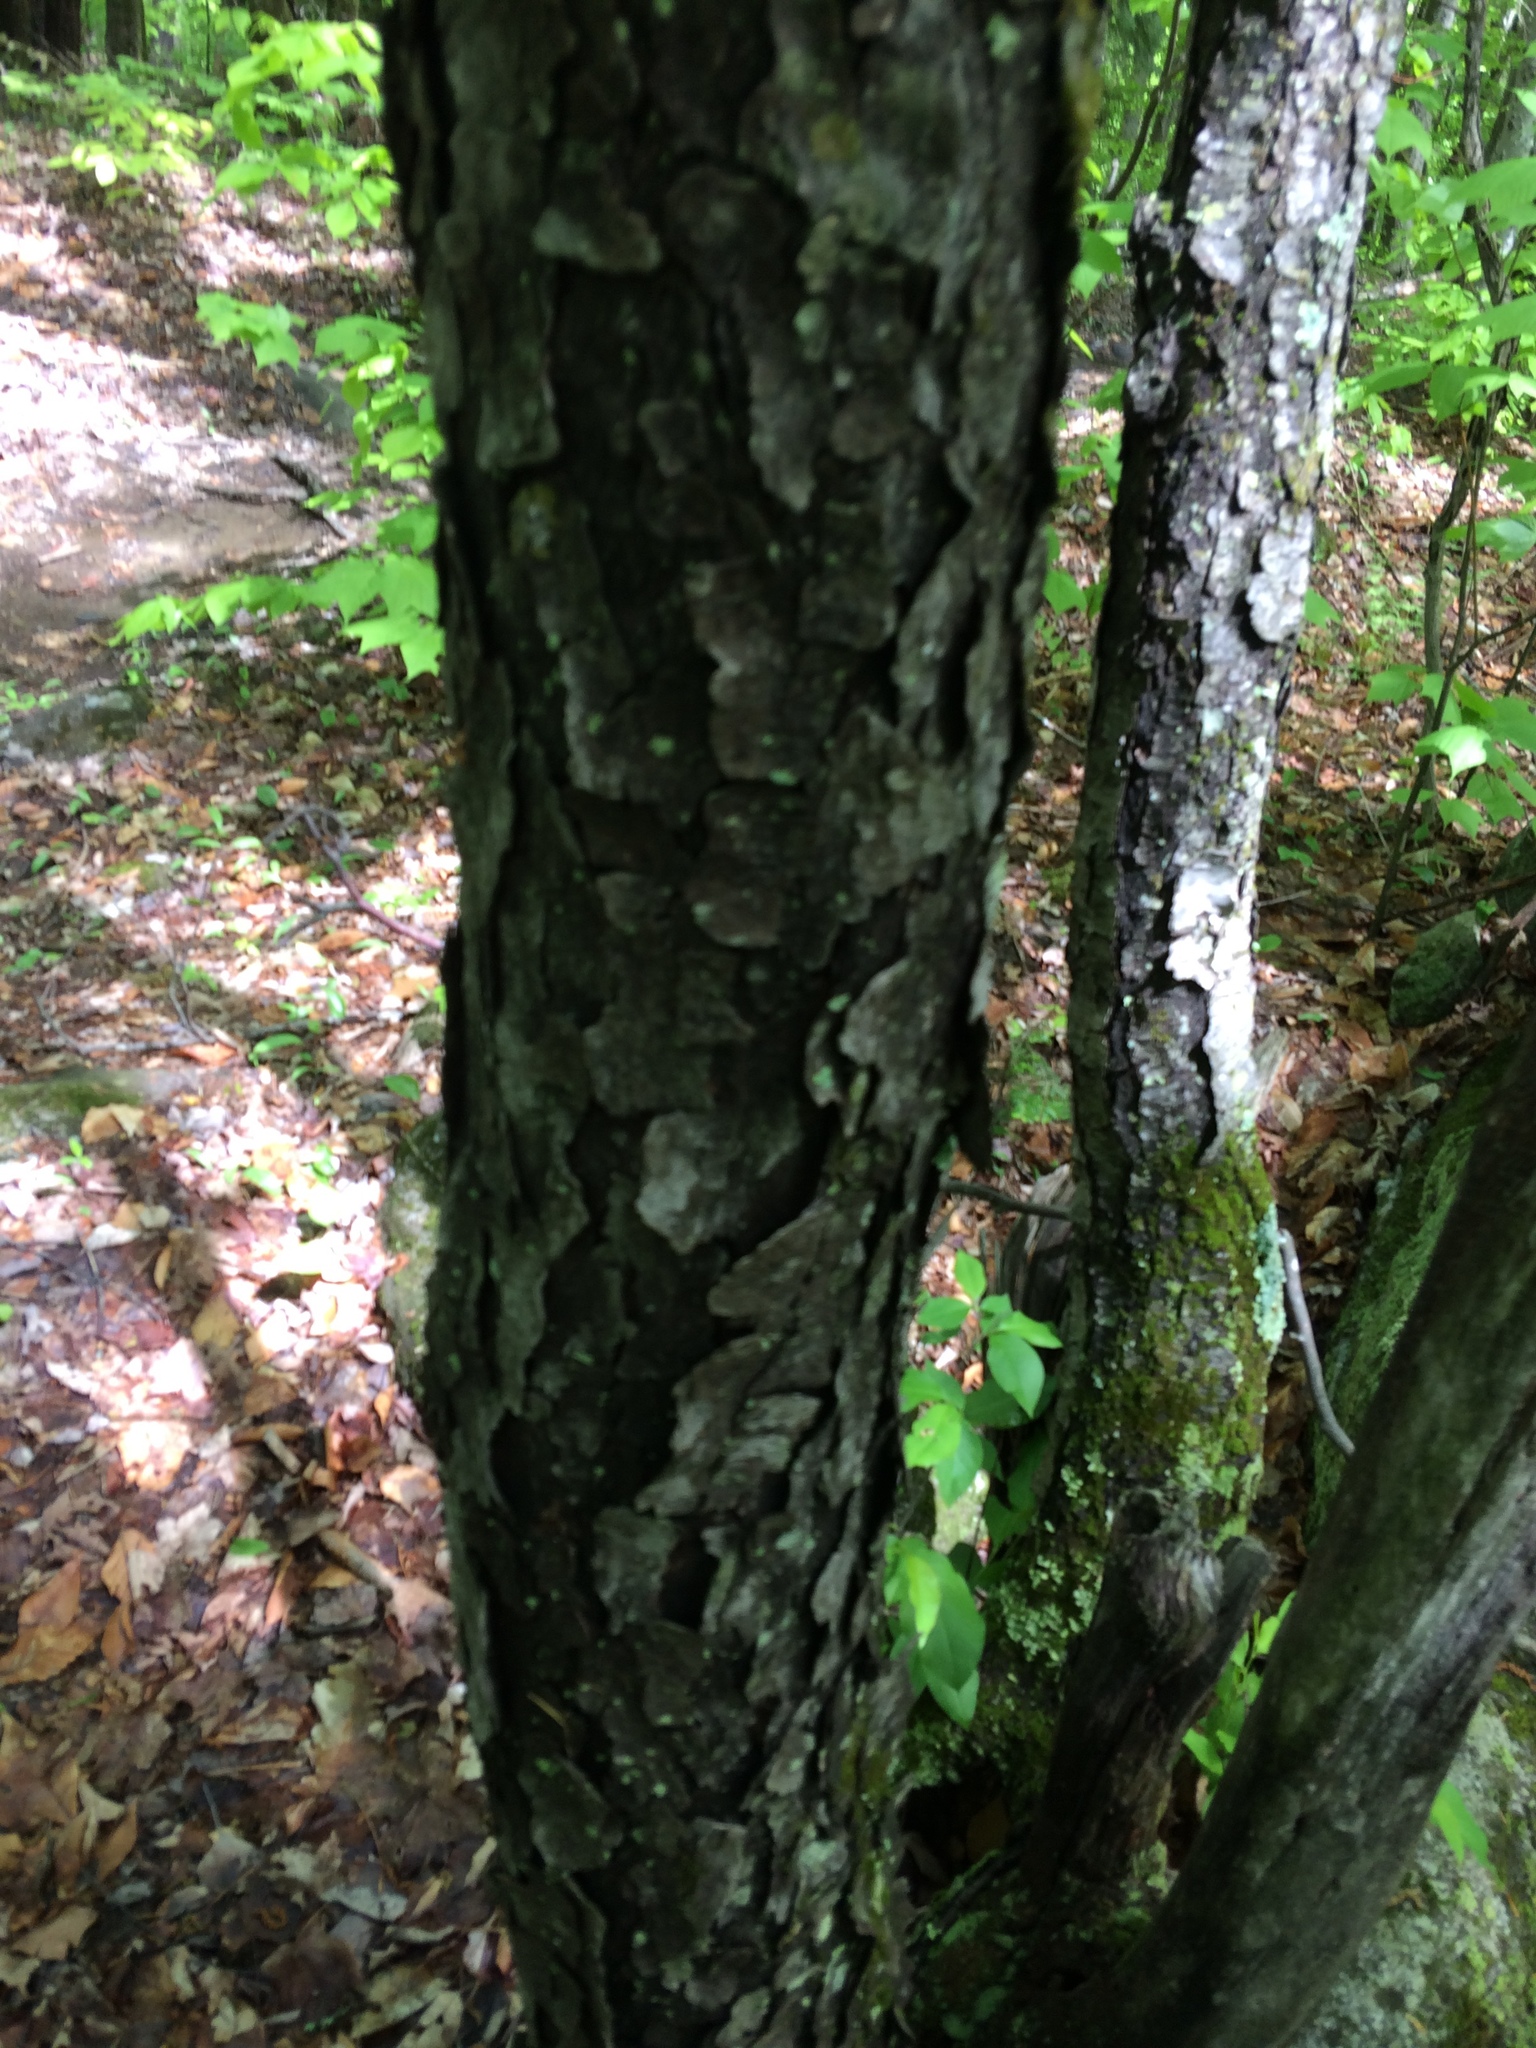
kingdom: Plantae
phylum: Tracheophyta
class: Magnoliopsida
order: Rosales
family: Rosaceae
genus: Prunus
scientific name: Prunus serotina
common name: Black cherry
